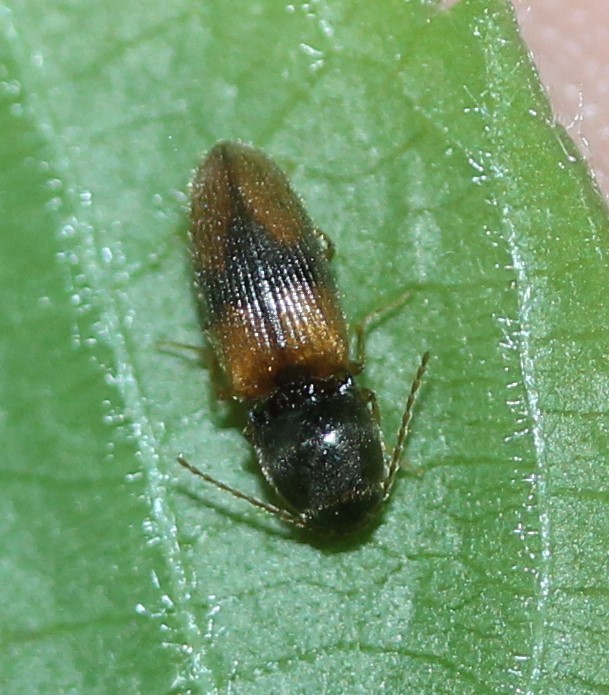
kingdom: Animalia
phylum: Arthropoda
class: Insecta
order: Coleoptera
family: Elateridae
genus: Horistonotus
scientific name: Horistonotus curiatus
